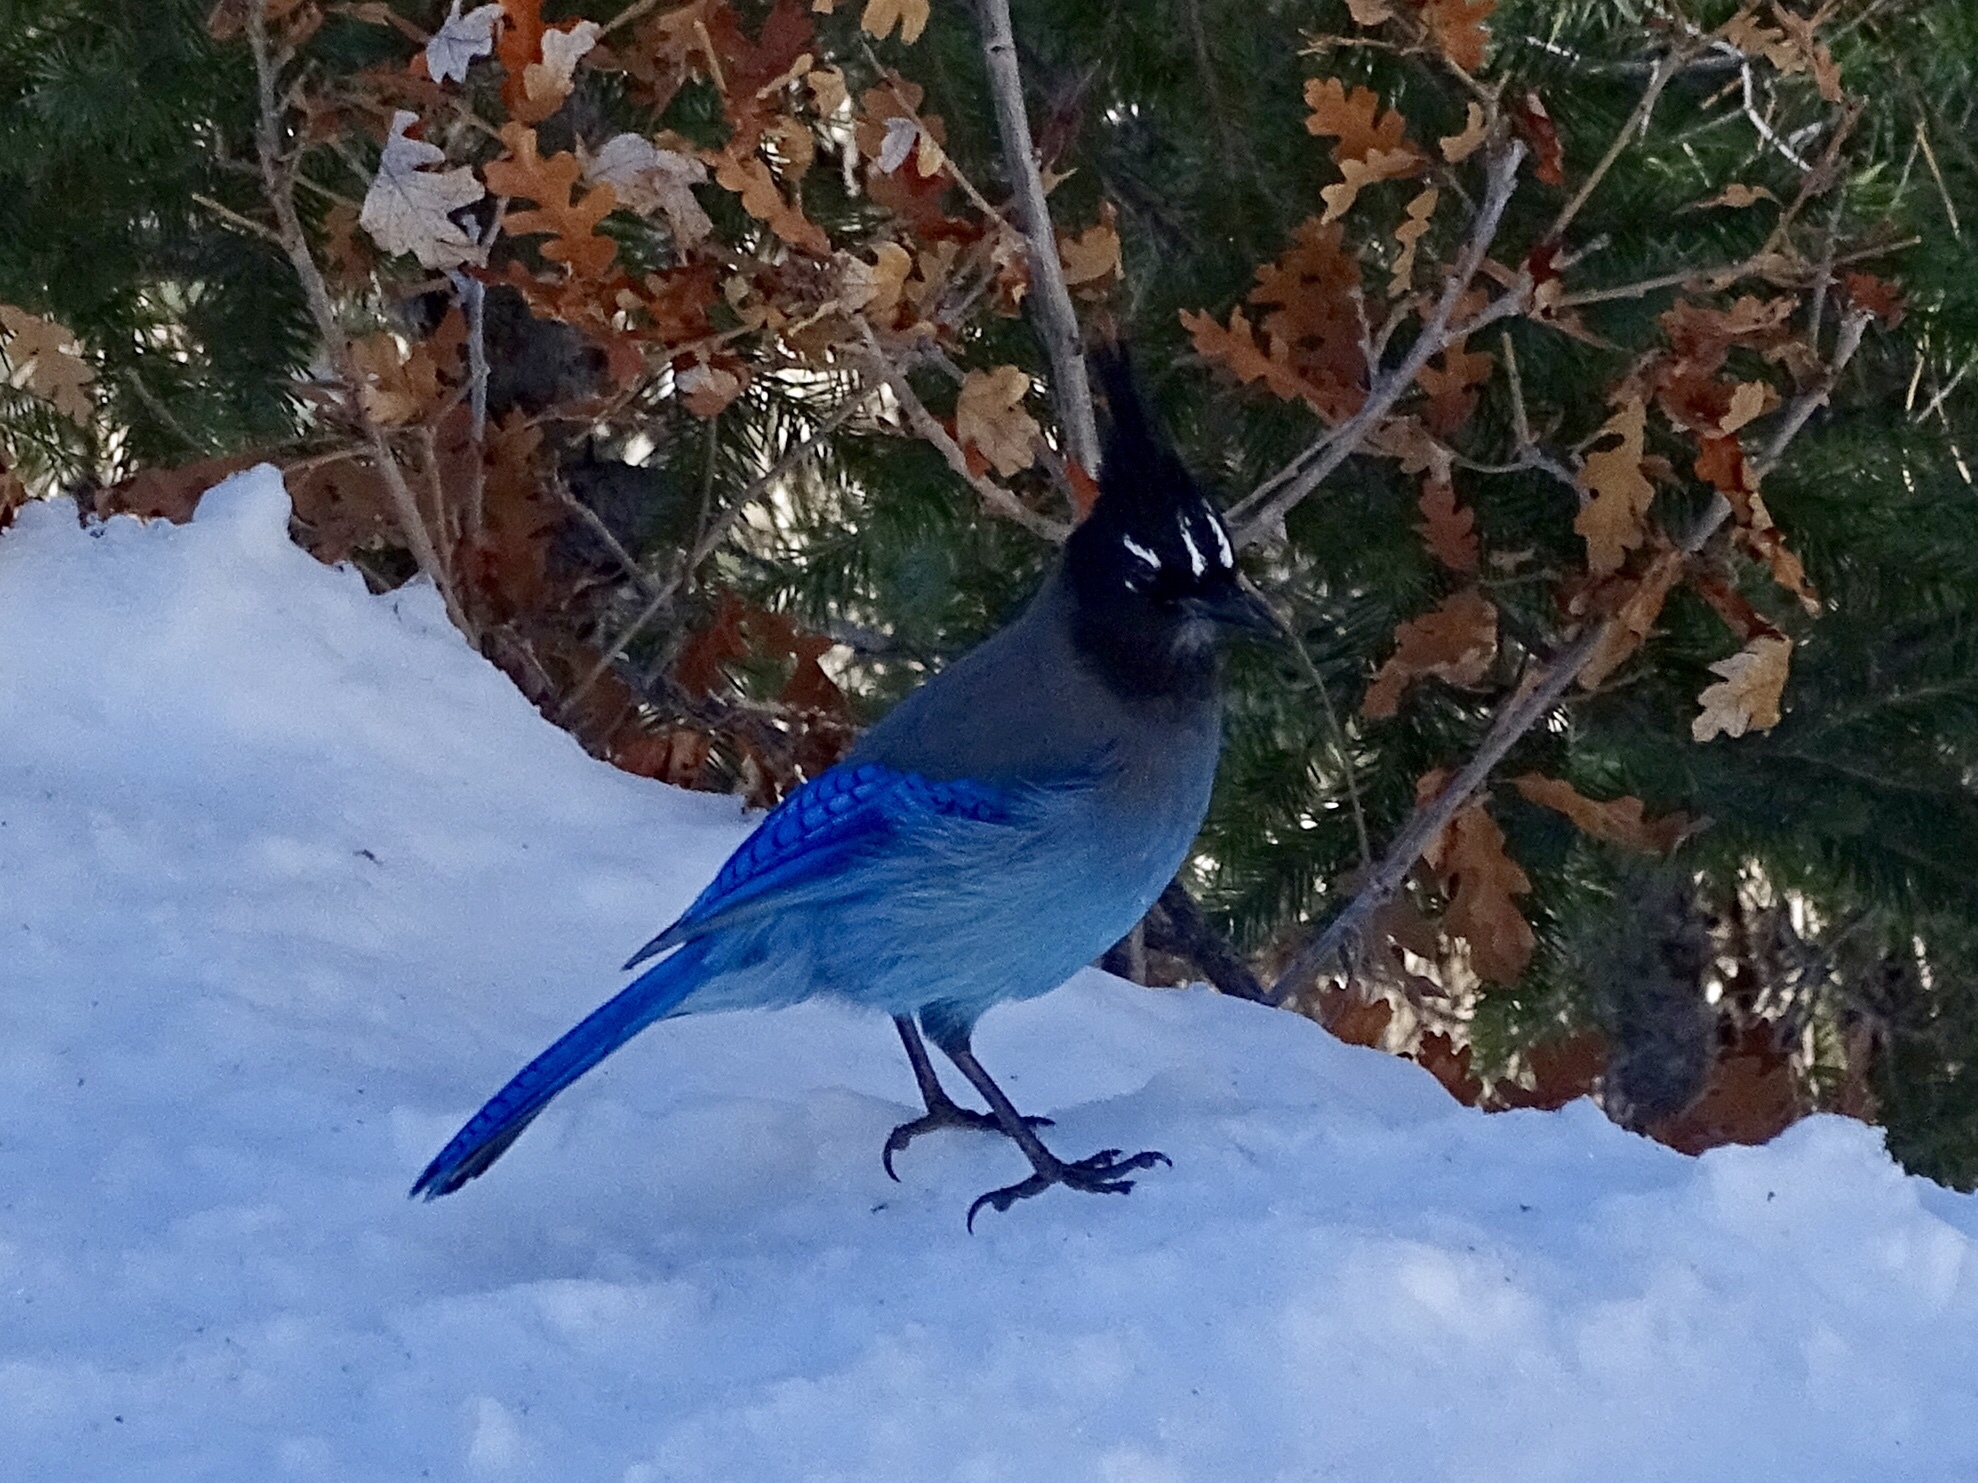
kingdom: Animalia
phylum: Chordata
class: Aves
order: Passeriformes
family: Corvidae
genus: Cyanocitta
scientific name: Cyanocitta stelleri
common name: Steller's jay
